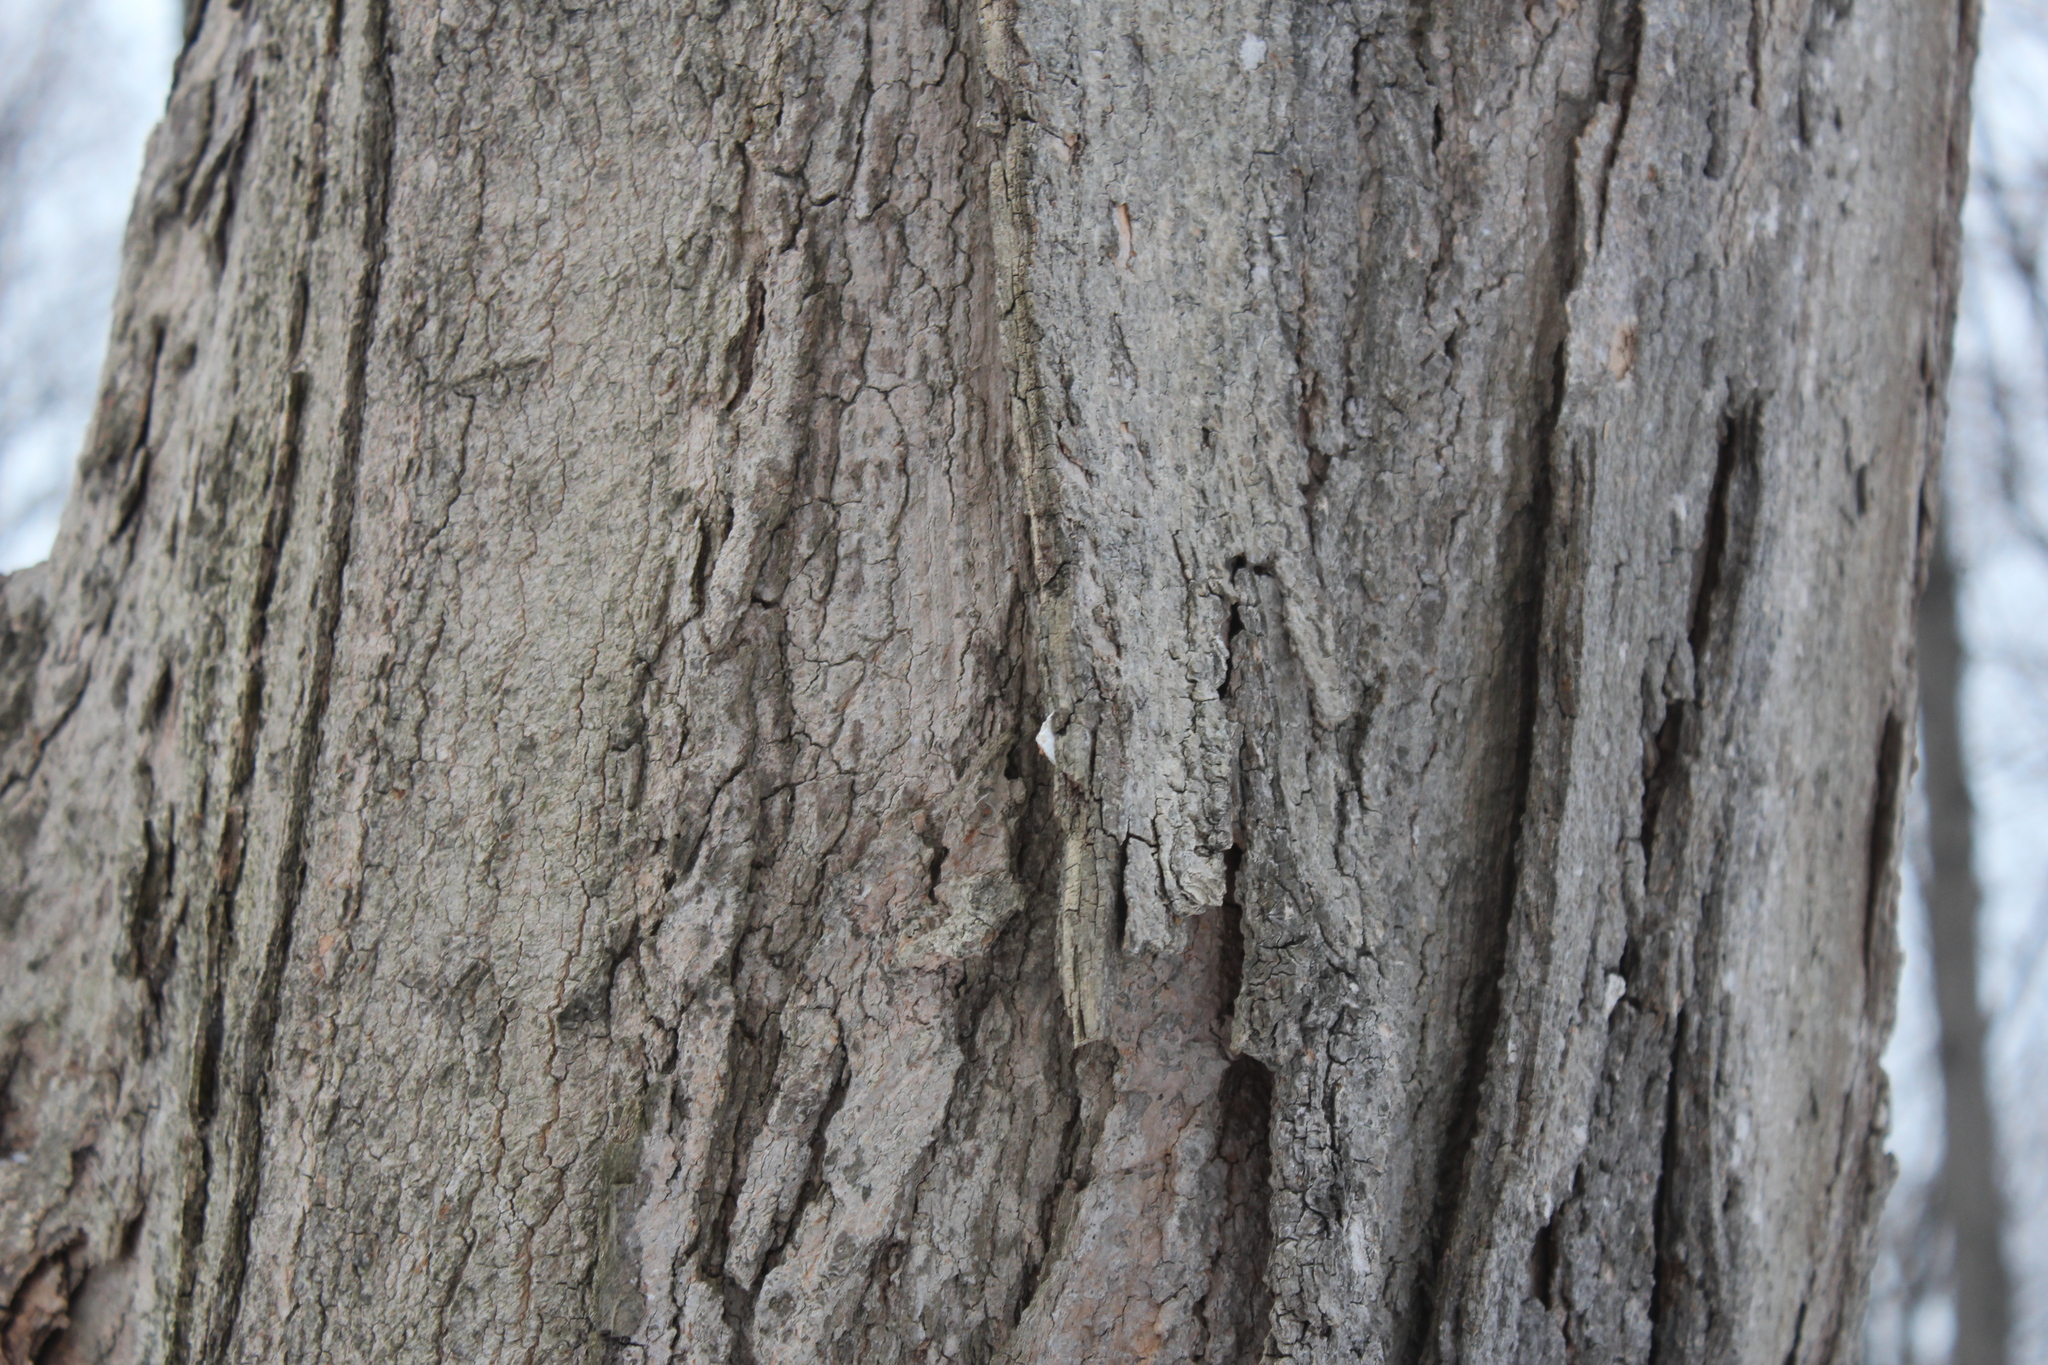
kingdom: Plantae
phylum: Tracheophyta
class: Magnoliopsida
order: Sapindales
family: Sapindaceae
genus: Acer
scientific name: Acer saccharum
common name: Sugar maple
